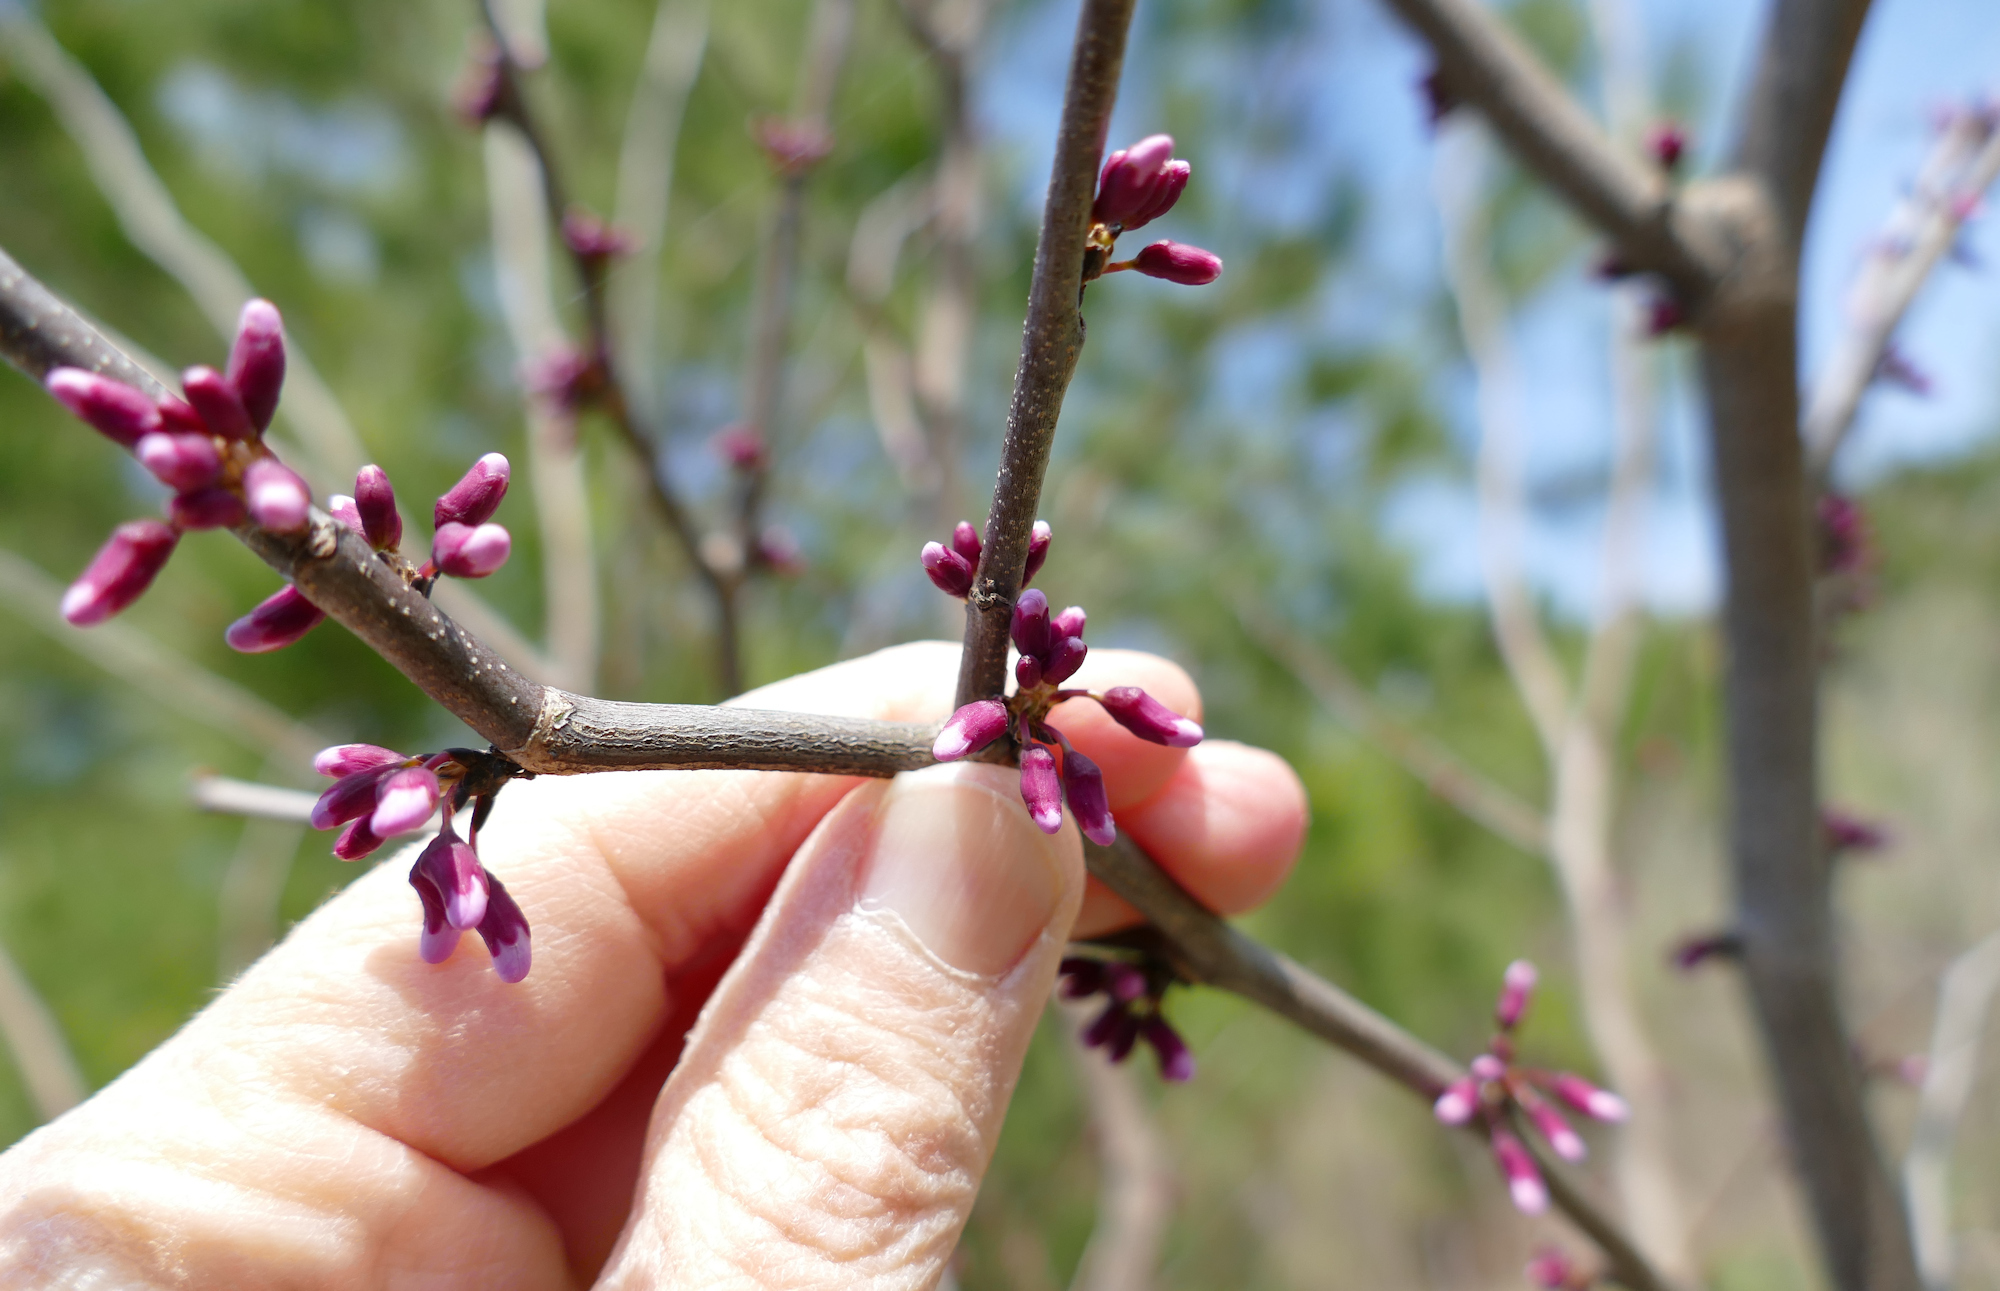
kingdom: Plantae
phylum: Tracheophyta
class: Magnoliopsida
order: Fabales
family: Fabaceae
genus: Cercis
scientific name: Cercis canadensis
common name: Eastern redbud
